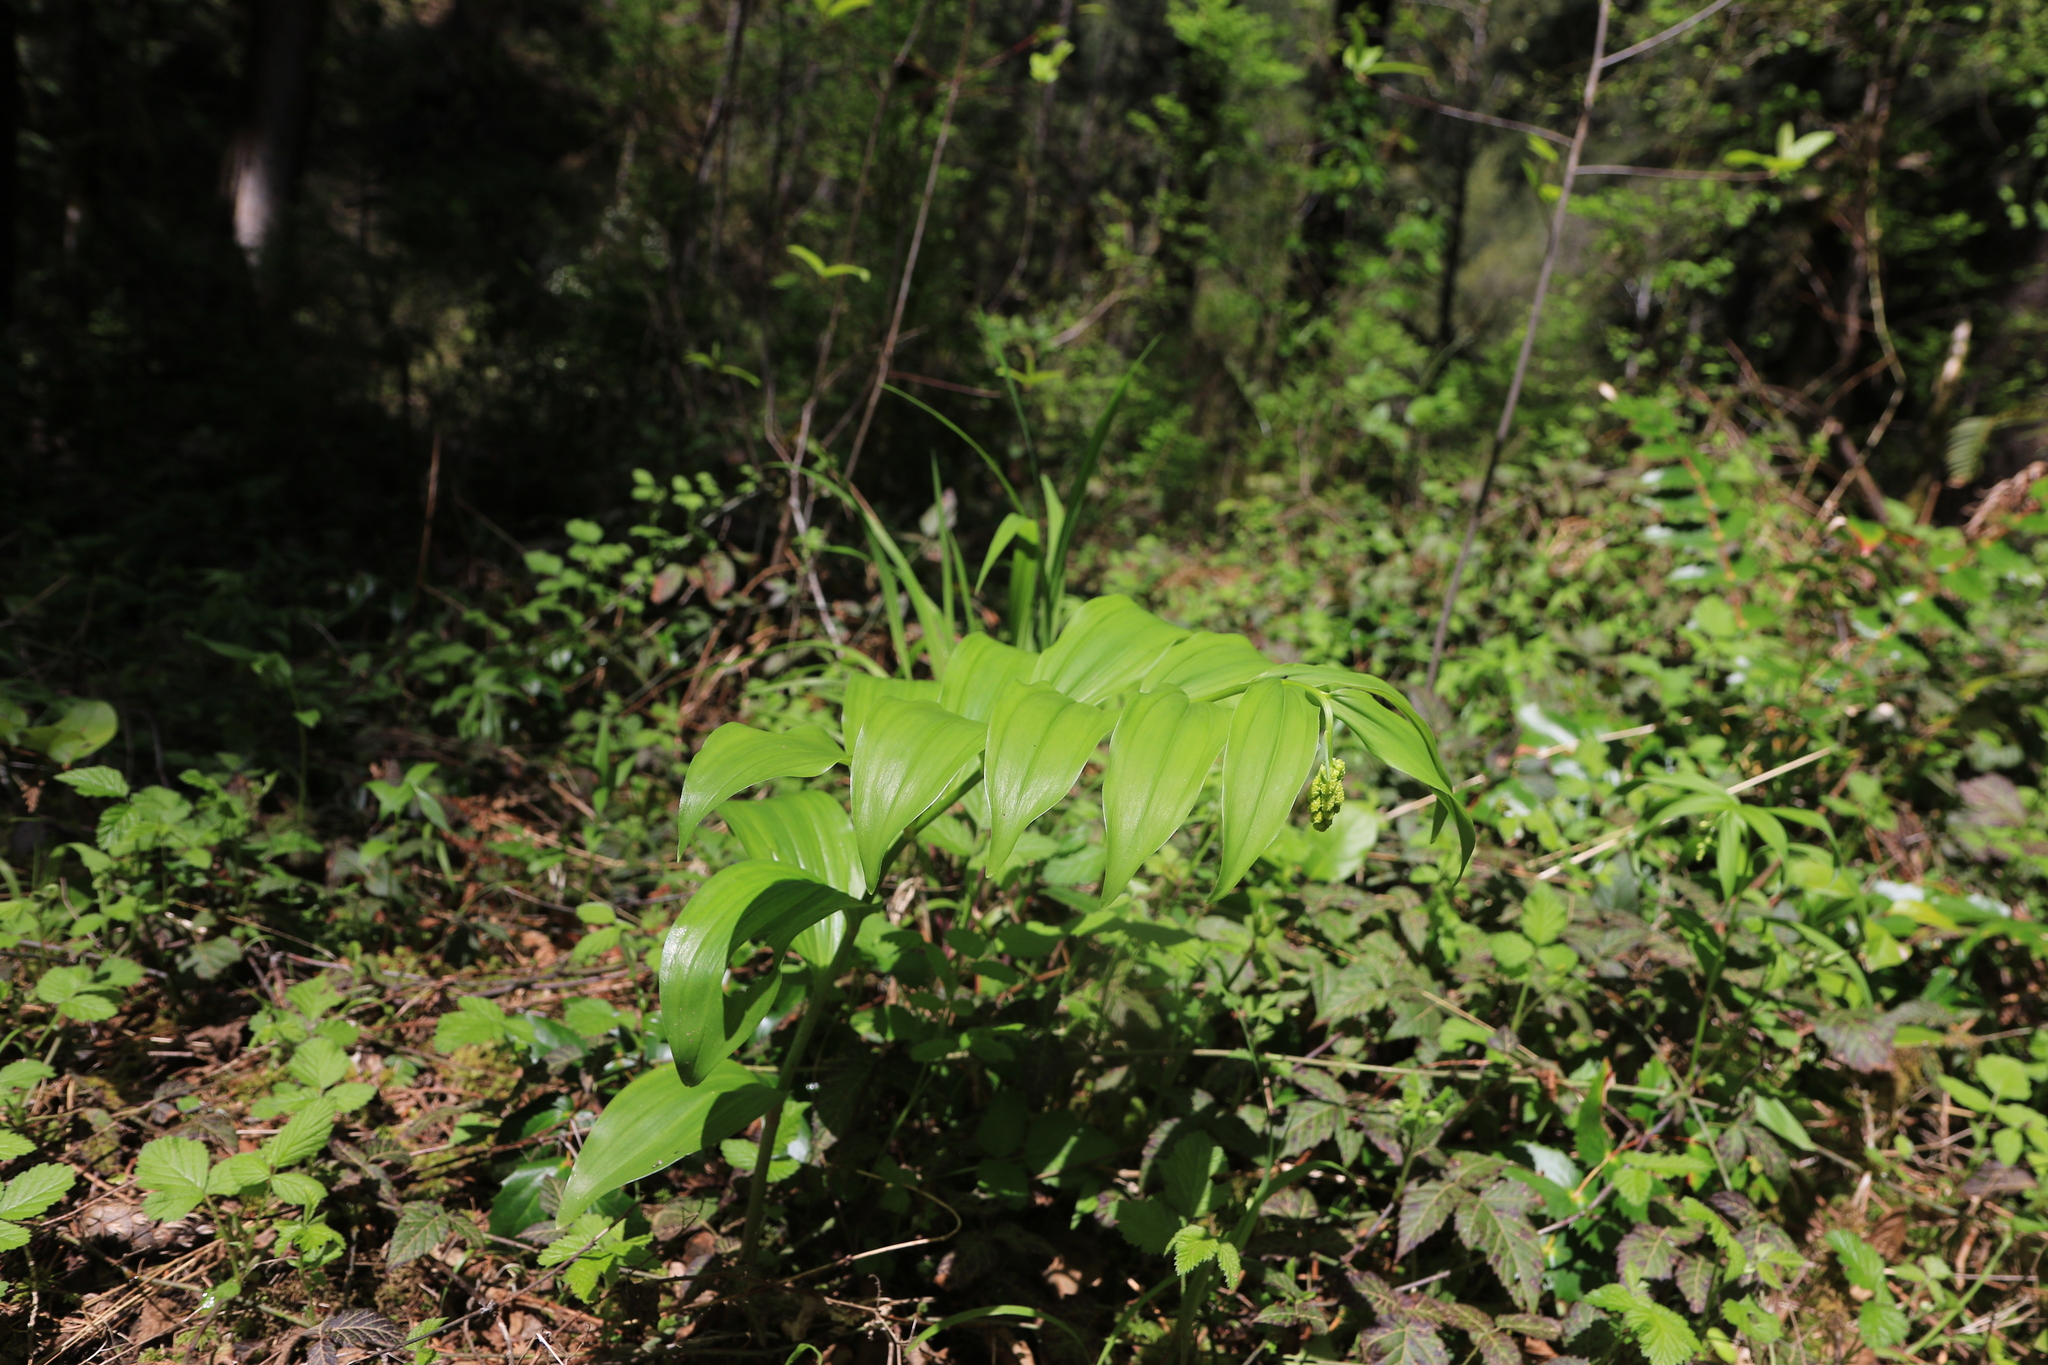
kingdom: Plantae
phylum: Tracheophyta
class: Liliopsida
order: Asparagales
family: Asparagaceae
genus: Maianthemum
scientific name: Maianthemum racemosum
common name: False spikenard
